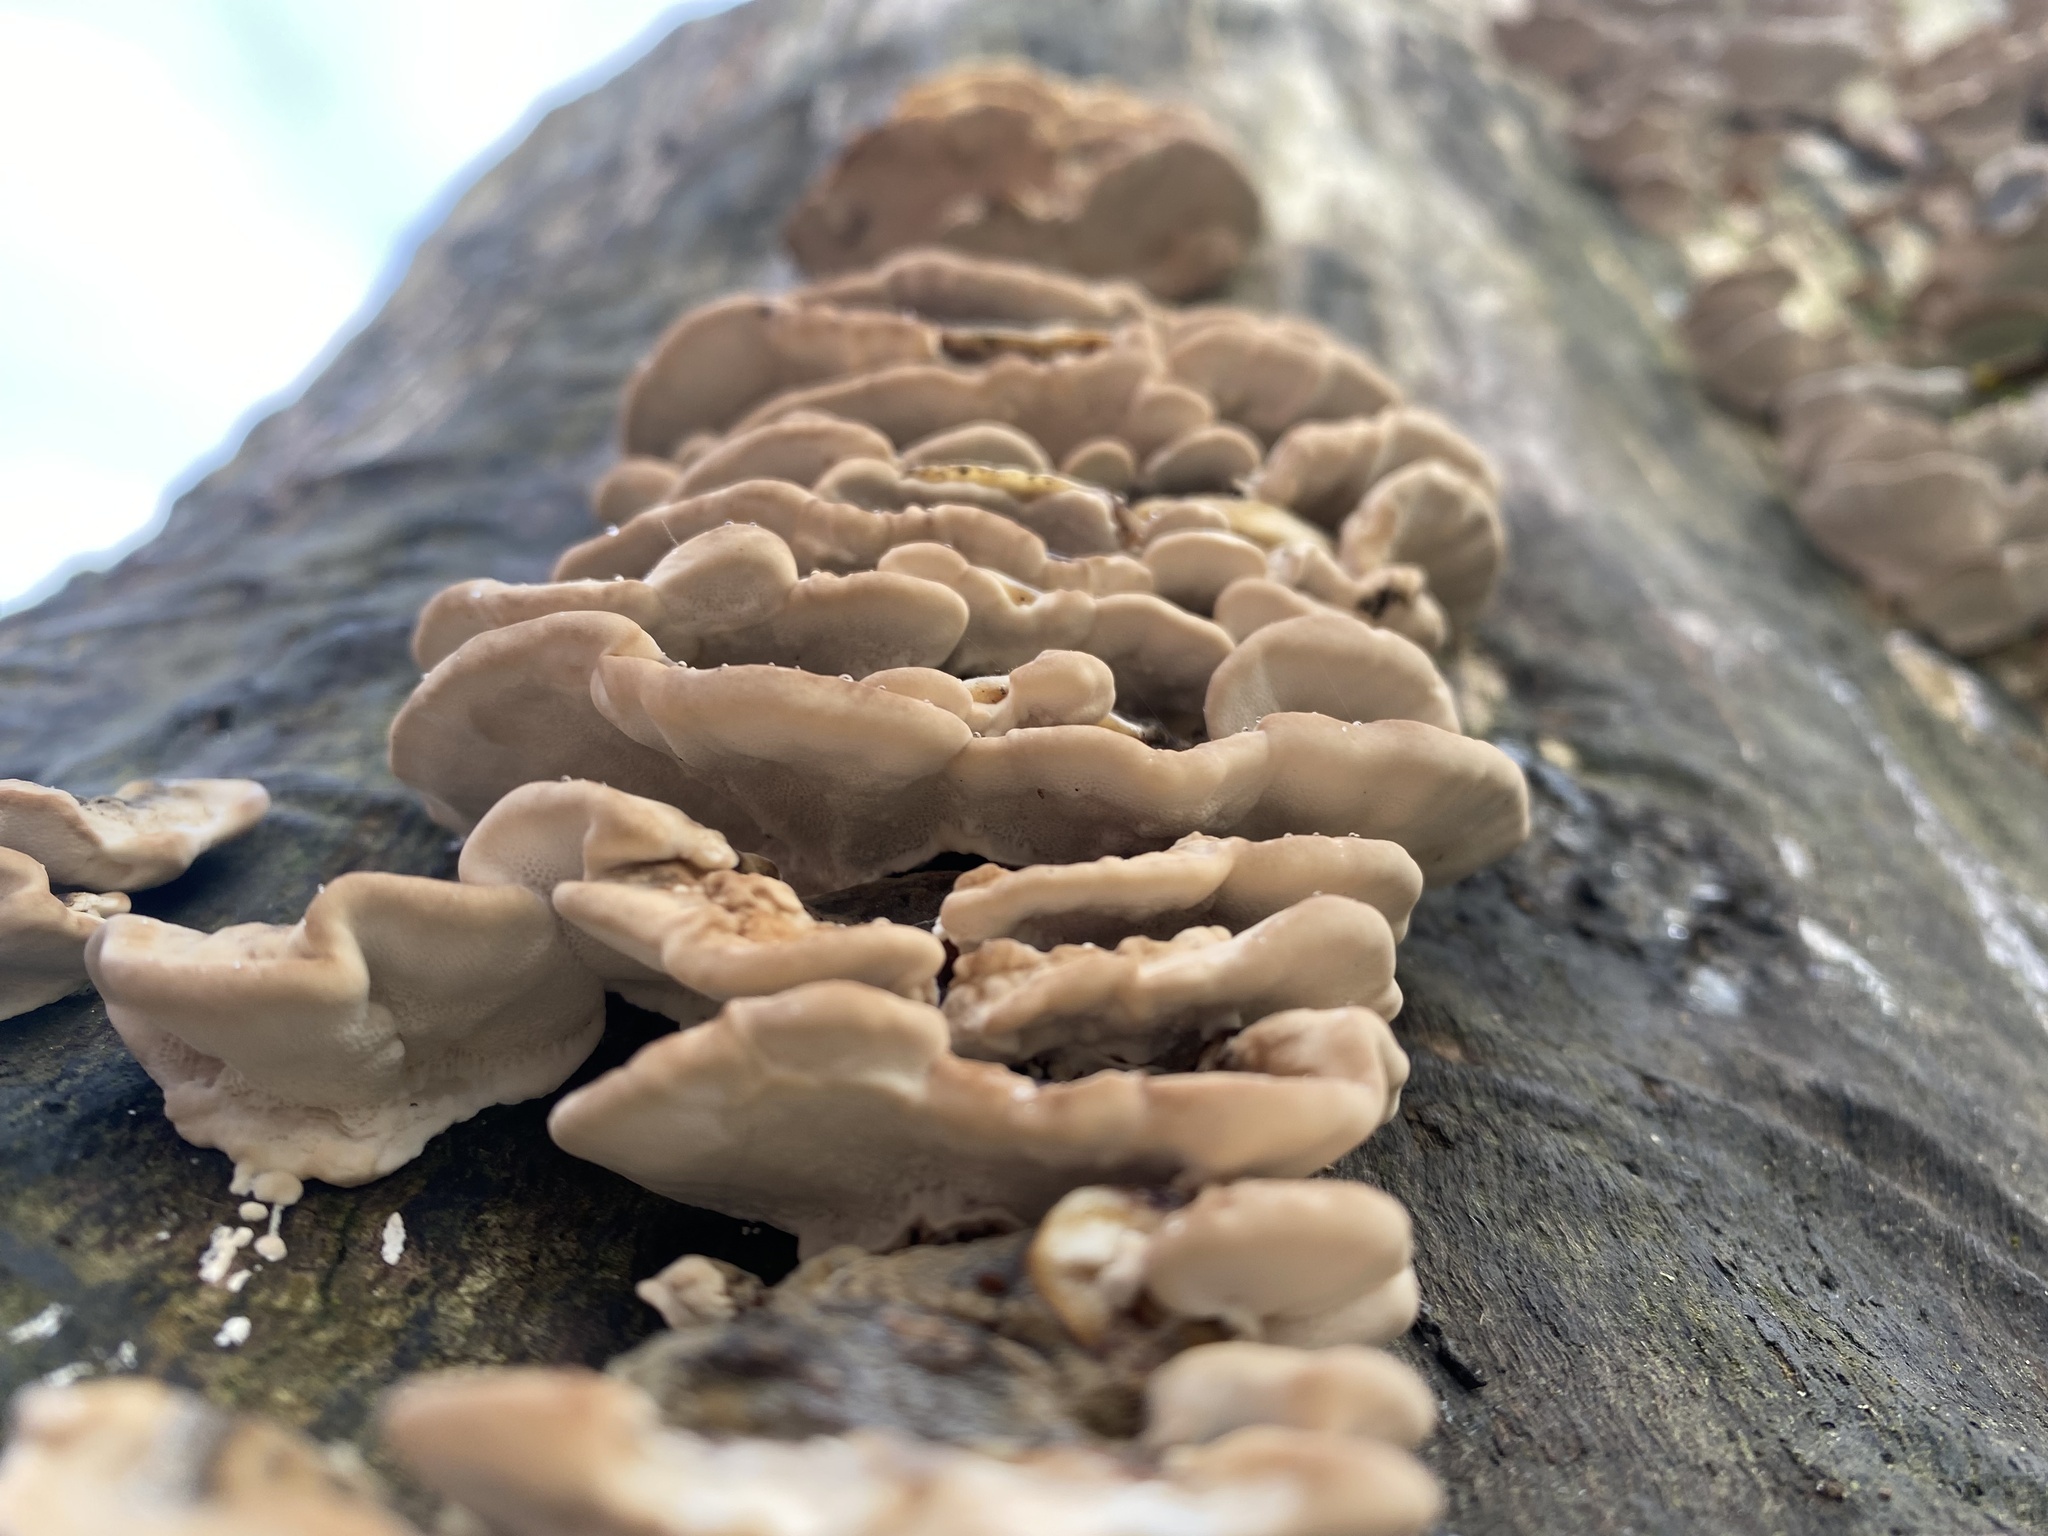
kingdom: Fungi
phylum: Basidiomycota
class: Agaricomycetes
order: Polyporales
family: Polyporaceae
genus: Trametes
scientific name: Trametes versicolor
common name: Turkeytail
